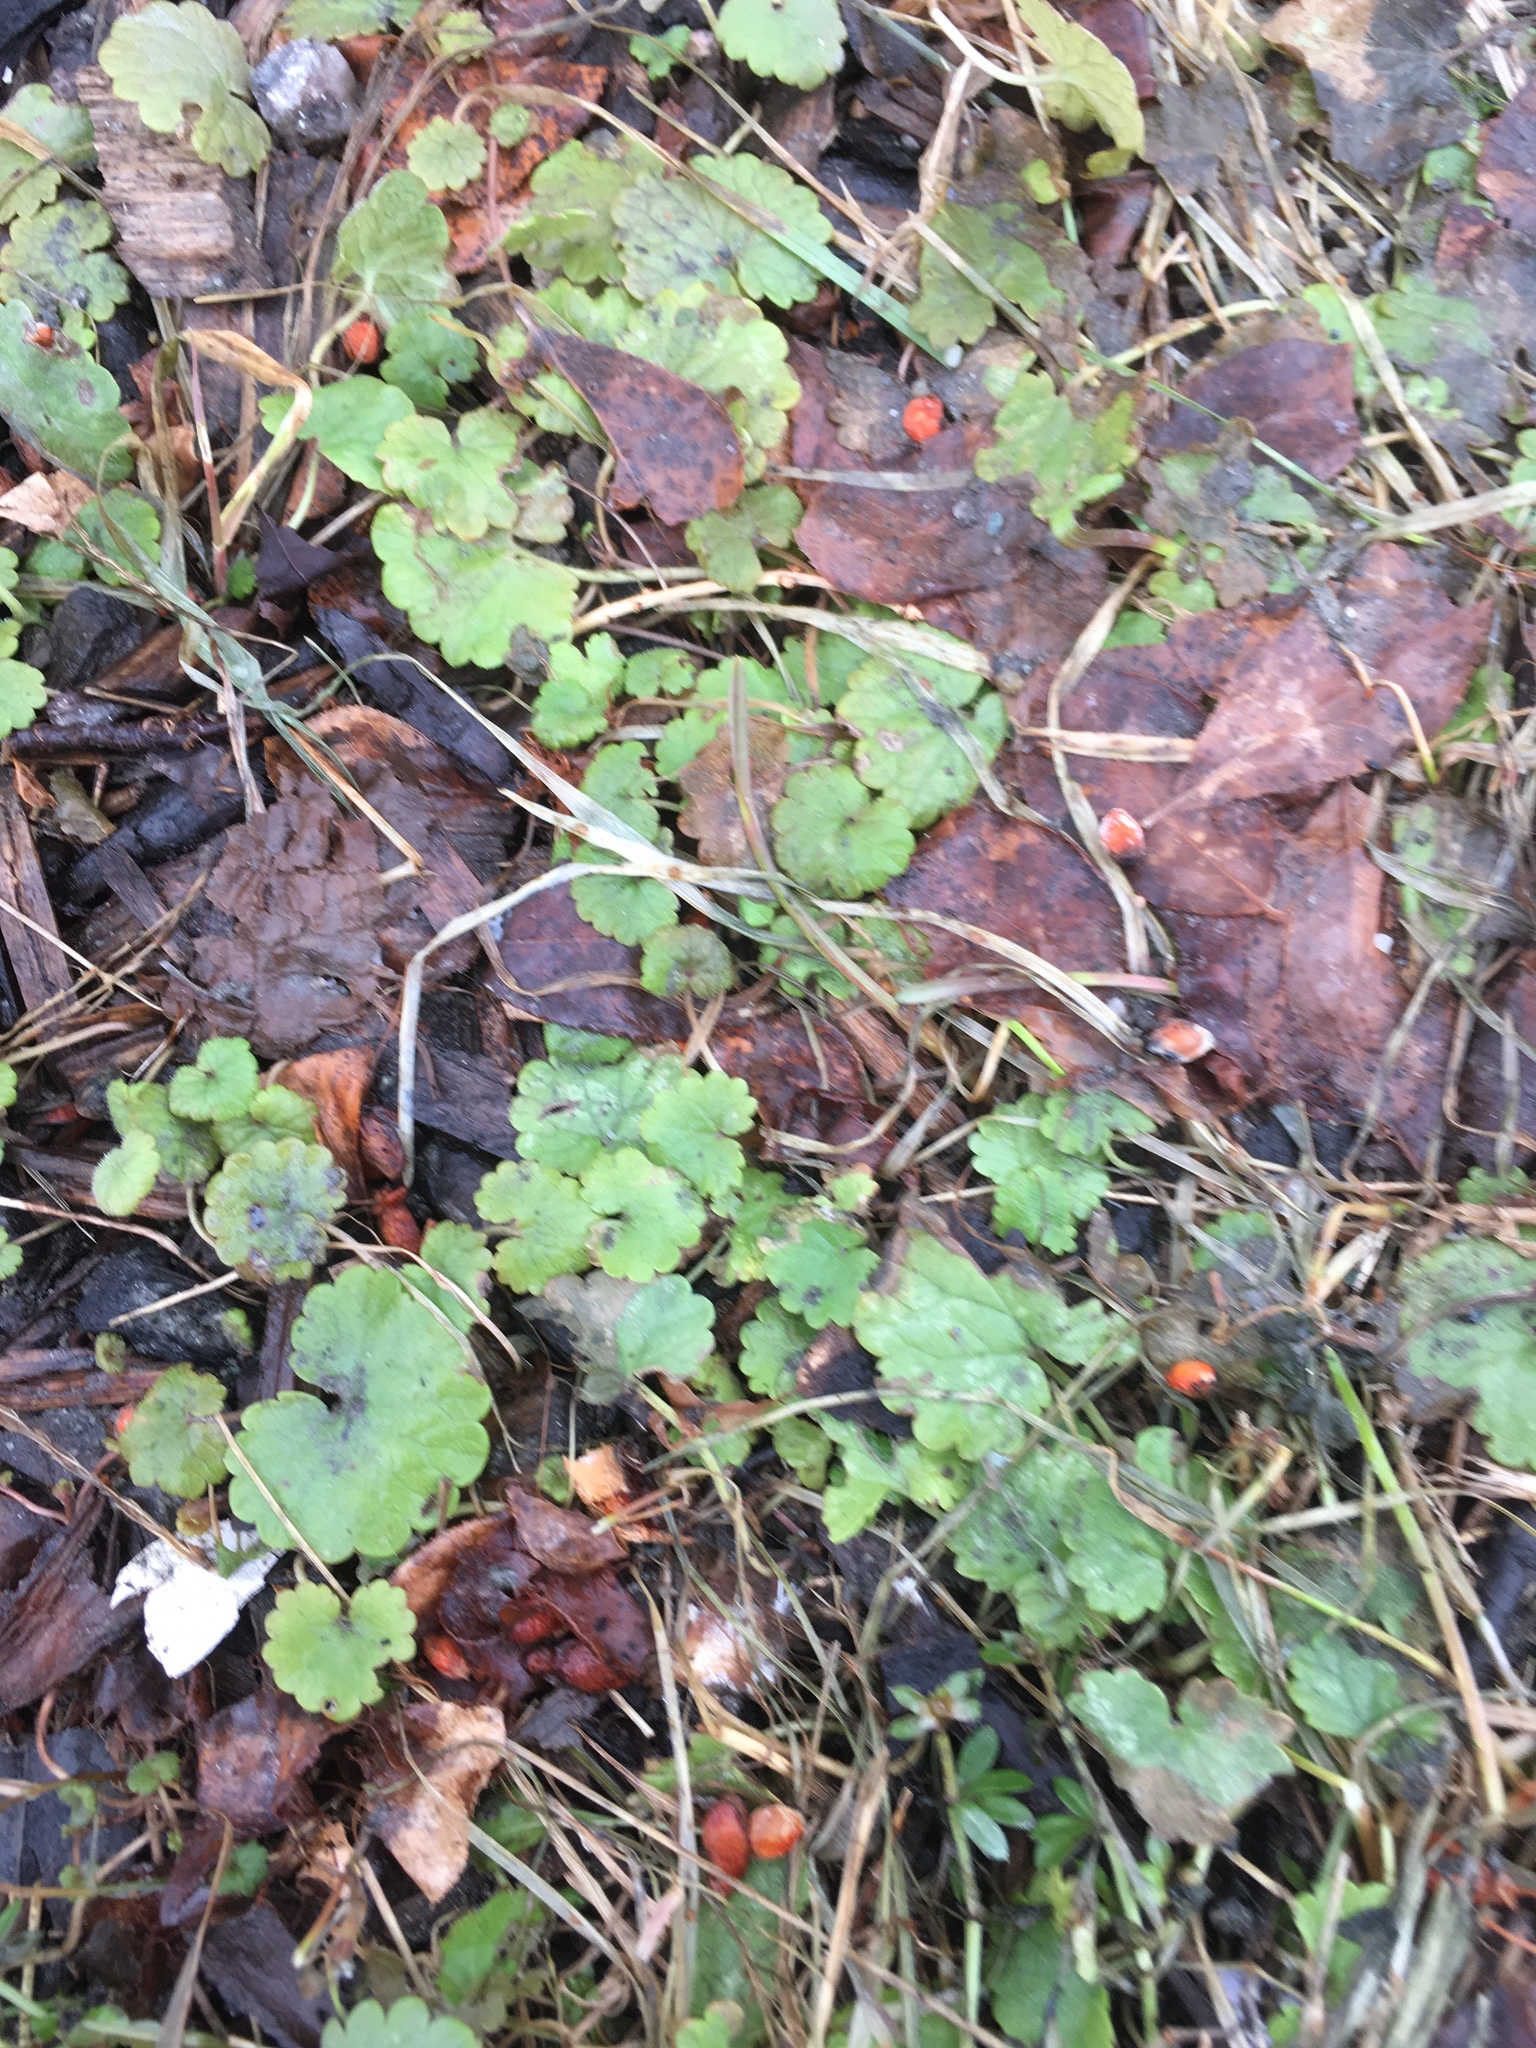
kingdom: Plantae
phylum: Tracheophyta
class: Magnoliopsida
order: Lamiales
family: Lamiaceae
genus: Glechoma
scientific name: Glechoma hederacea
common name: Ground ivy
